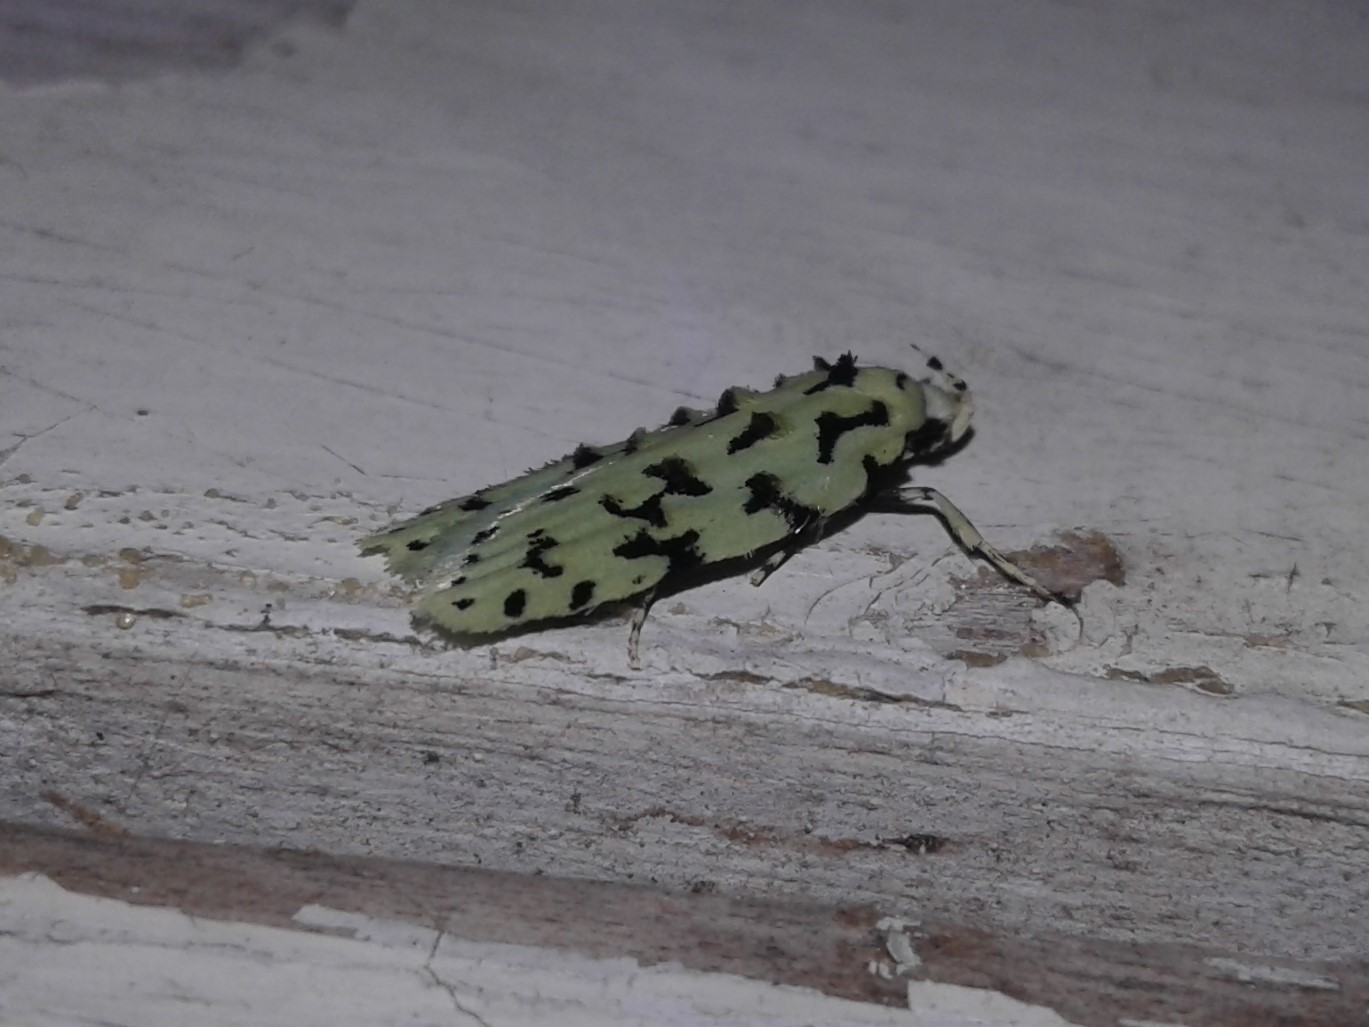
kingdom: Animalia
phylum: Arthropoda
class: Insecta
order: Lepidoptera
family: Oecophoridae
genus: Izatha
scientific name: Izatha huttoni
